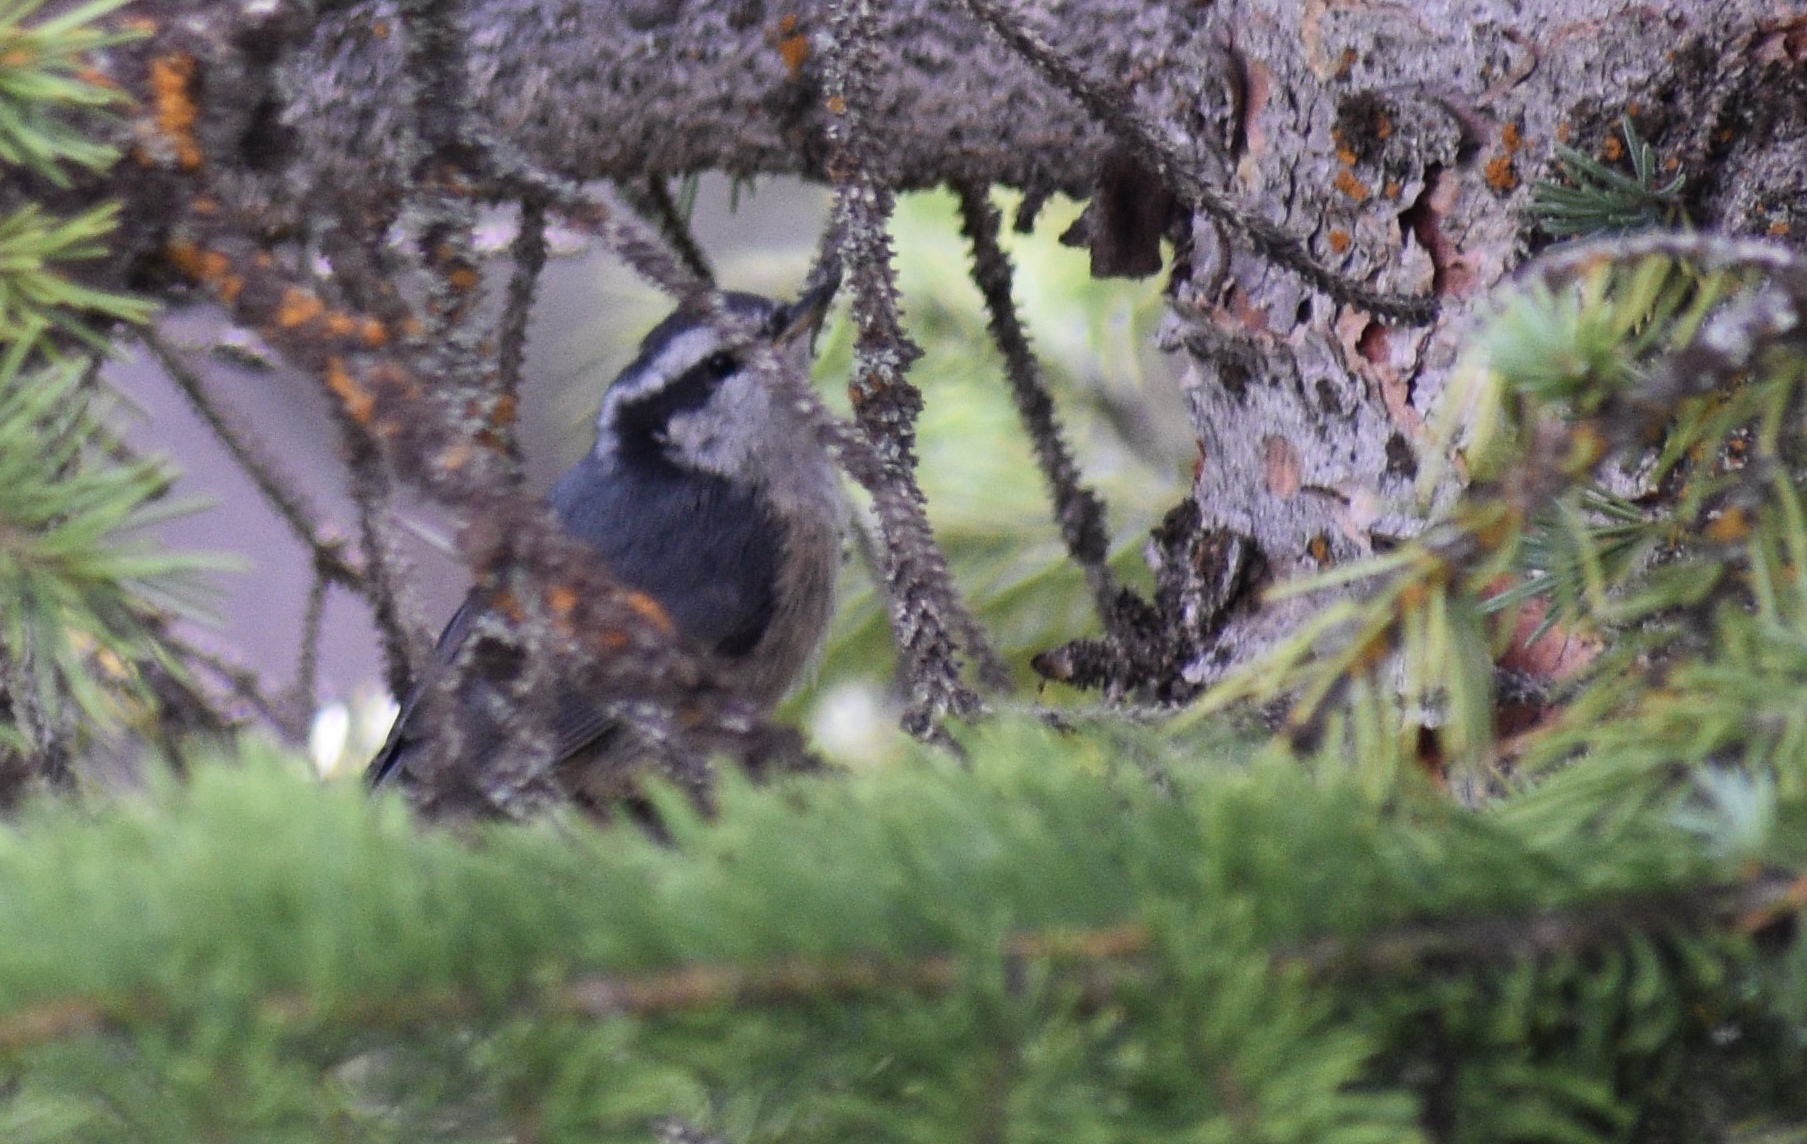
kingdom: Animalia
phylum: Chordata
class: Aves
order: Passeriformes
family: Sittidae
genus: Sitta
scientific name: Sitta canadensis
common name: Red-breasted nuthatch
